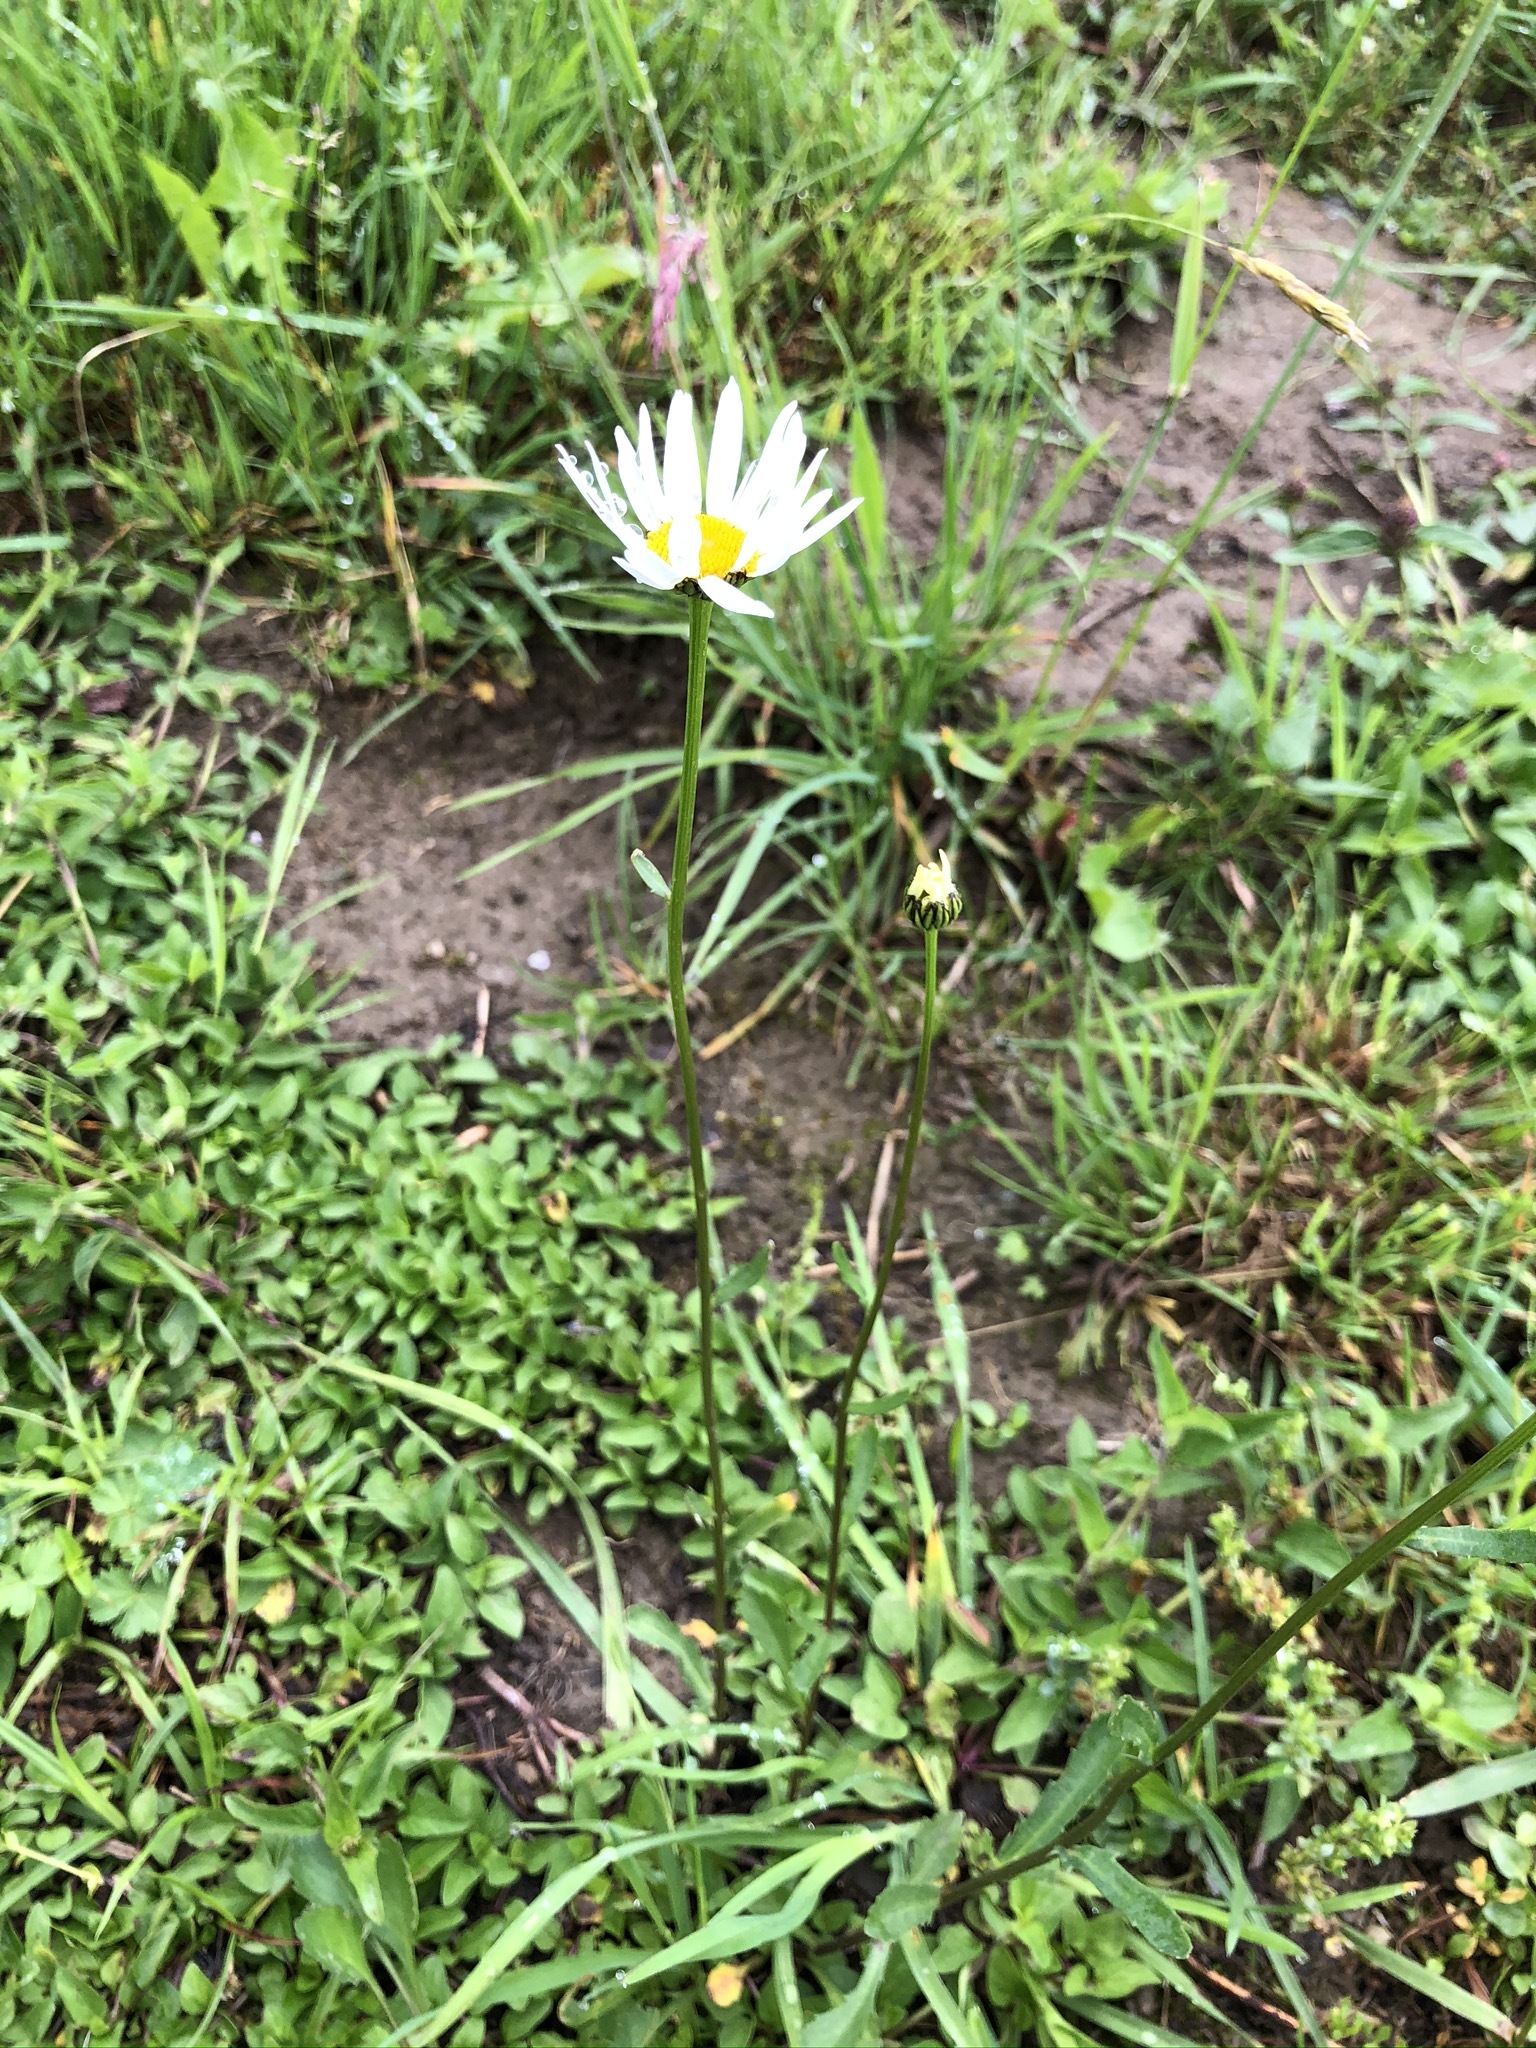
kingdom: Plantae
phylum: Tracheophyta
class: Magnoliopsida
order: Asterales
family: Asteraceae
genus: Leucanthemum
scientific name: Leucanthemum vulgare
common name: Oxeye daisy
